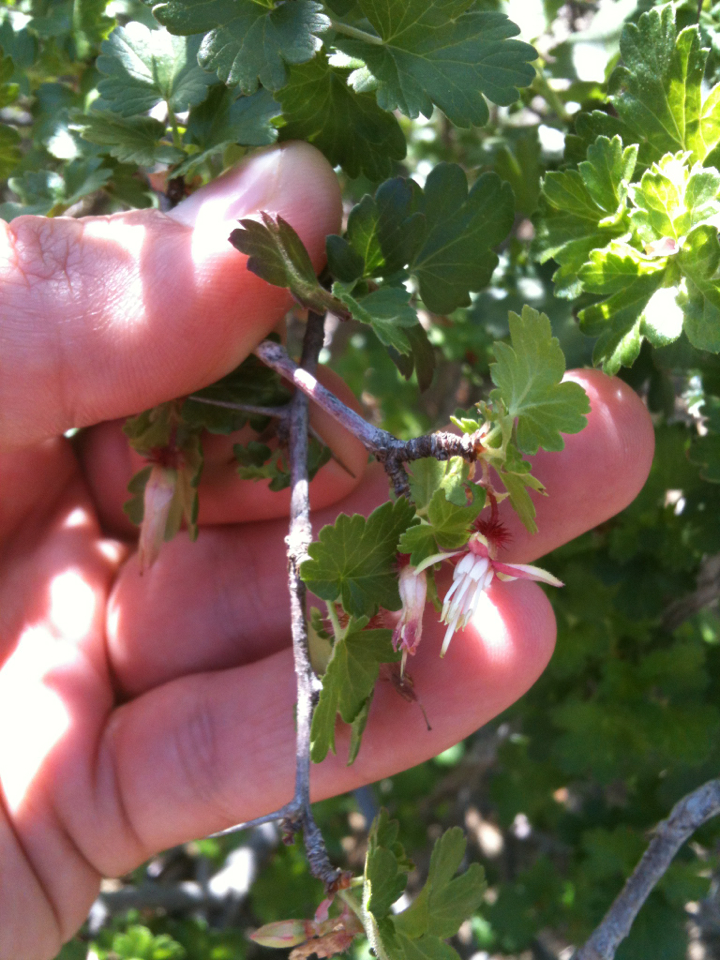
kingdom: Plantae
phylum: Tracheophyta
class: Magnoliopsida
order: Saxifragales
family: Grossulariaceae
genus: Ribes
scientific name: Ribes californicum
